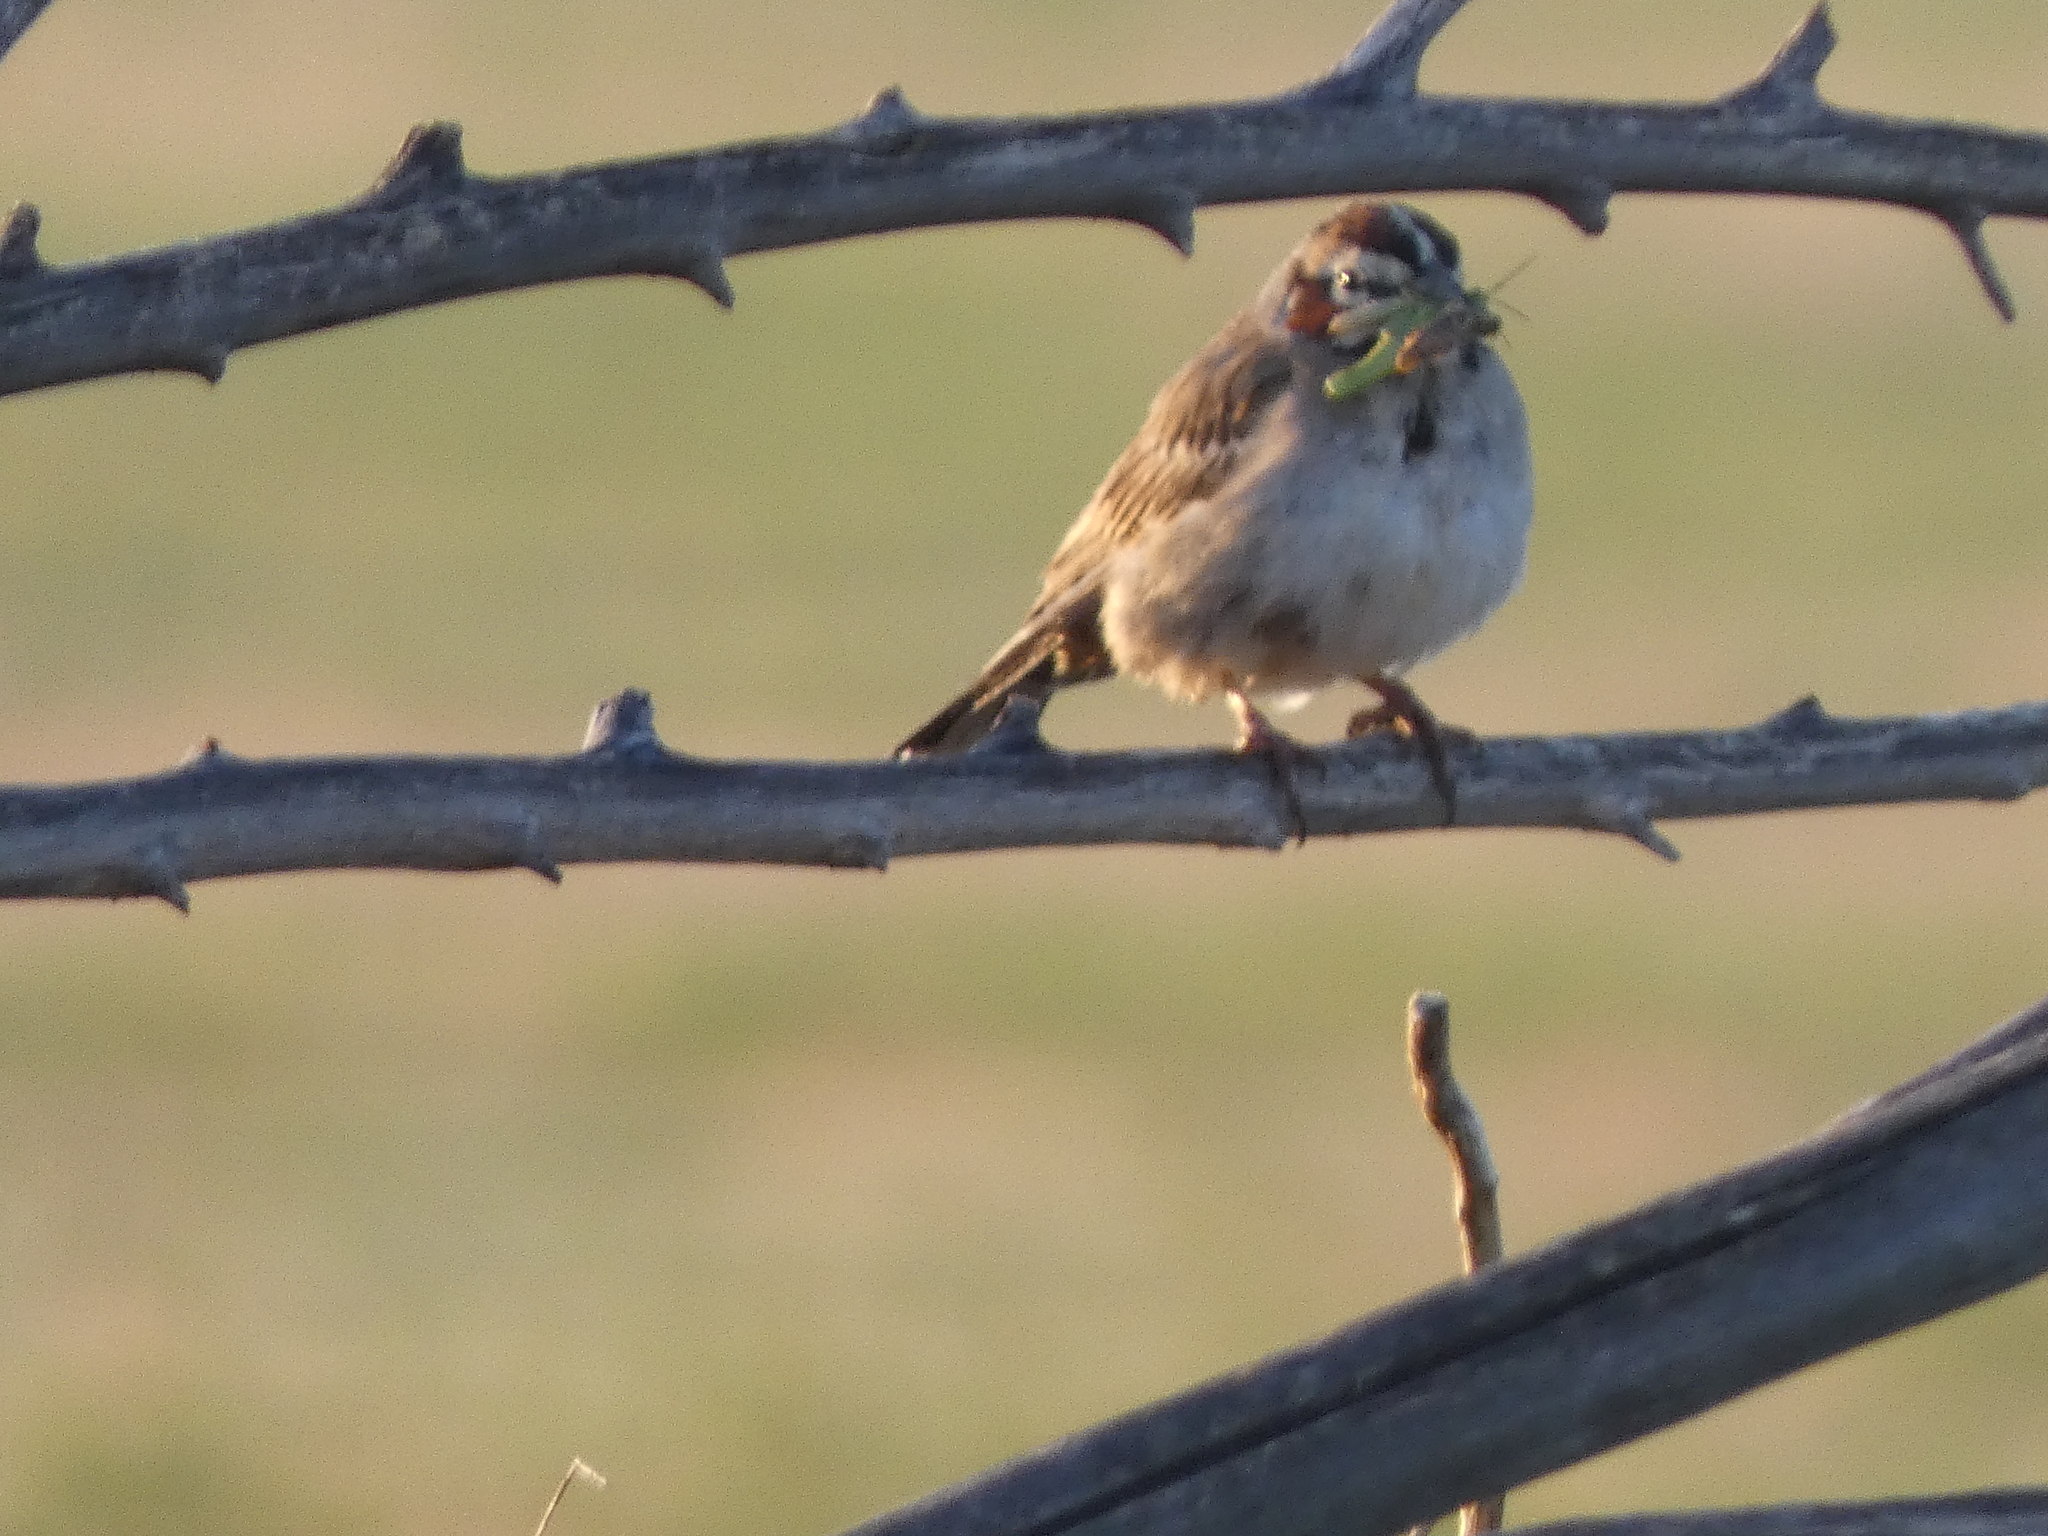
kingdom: Animalia
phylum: Chordata
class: Aves
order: Passeriformes
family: Passerellidae
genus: Chondestes
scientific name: Chondestes grammacus
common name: Lark sparrow
